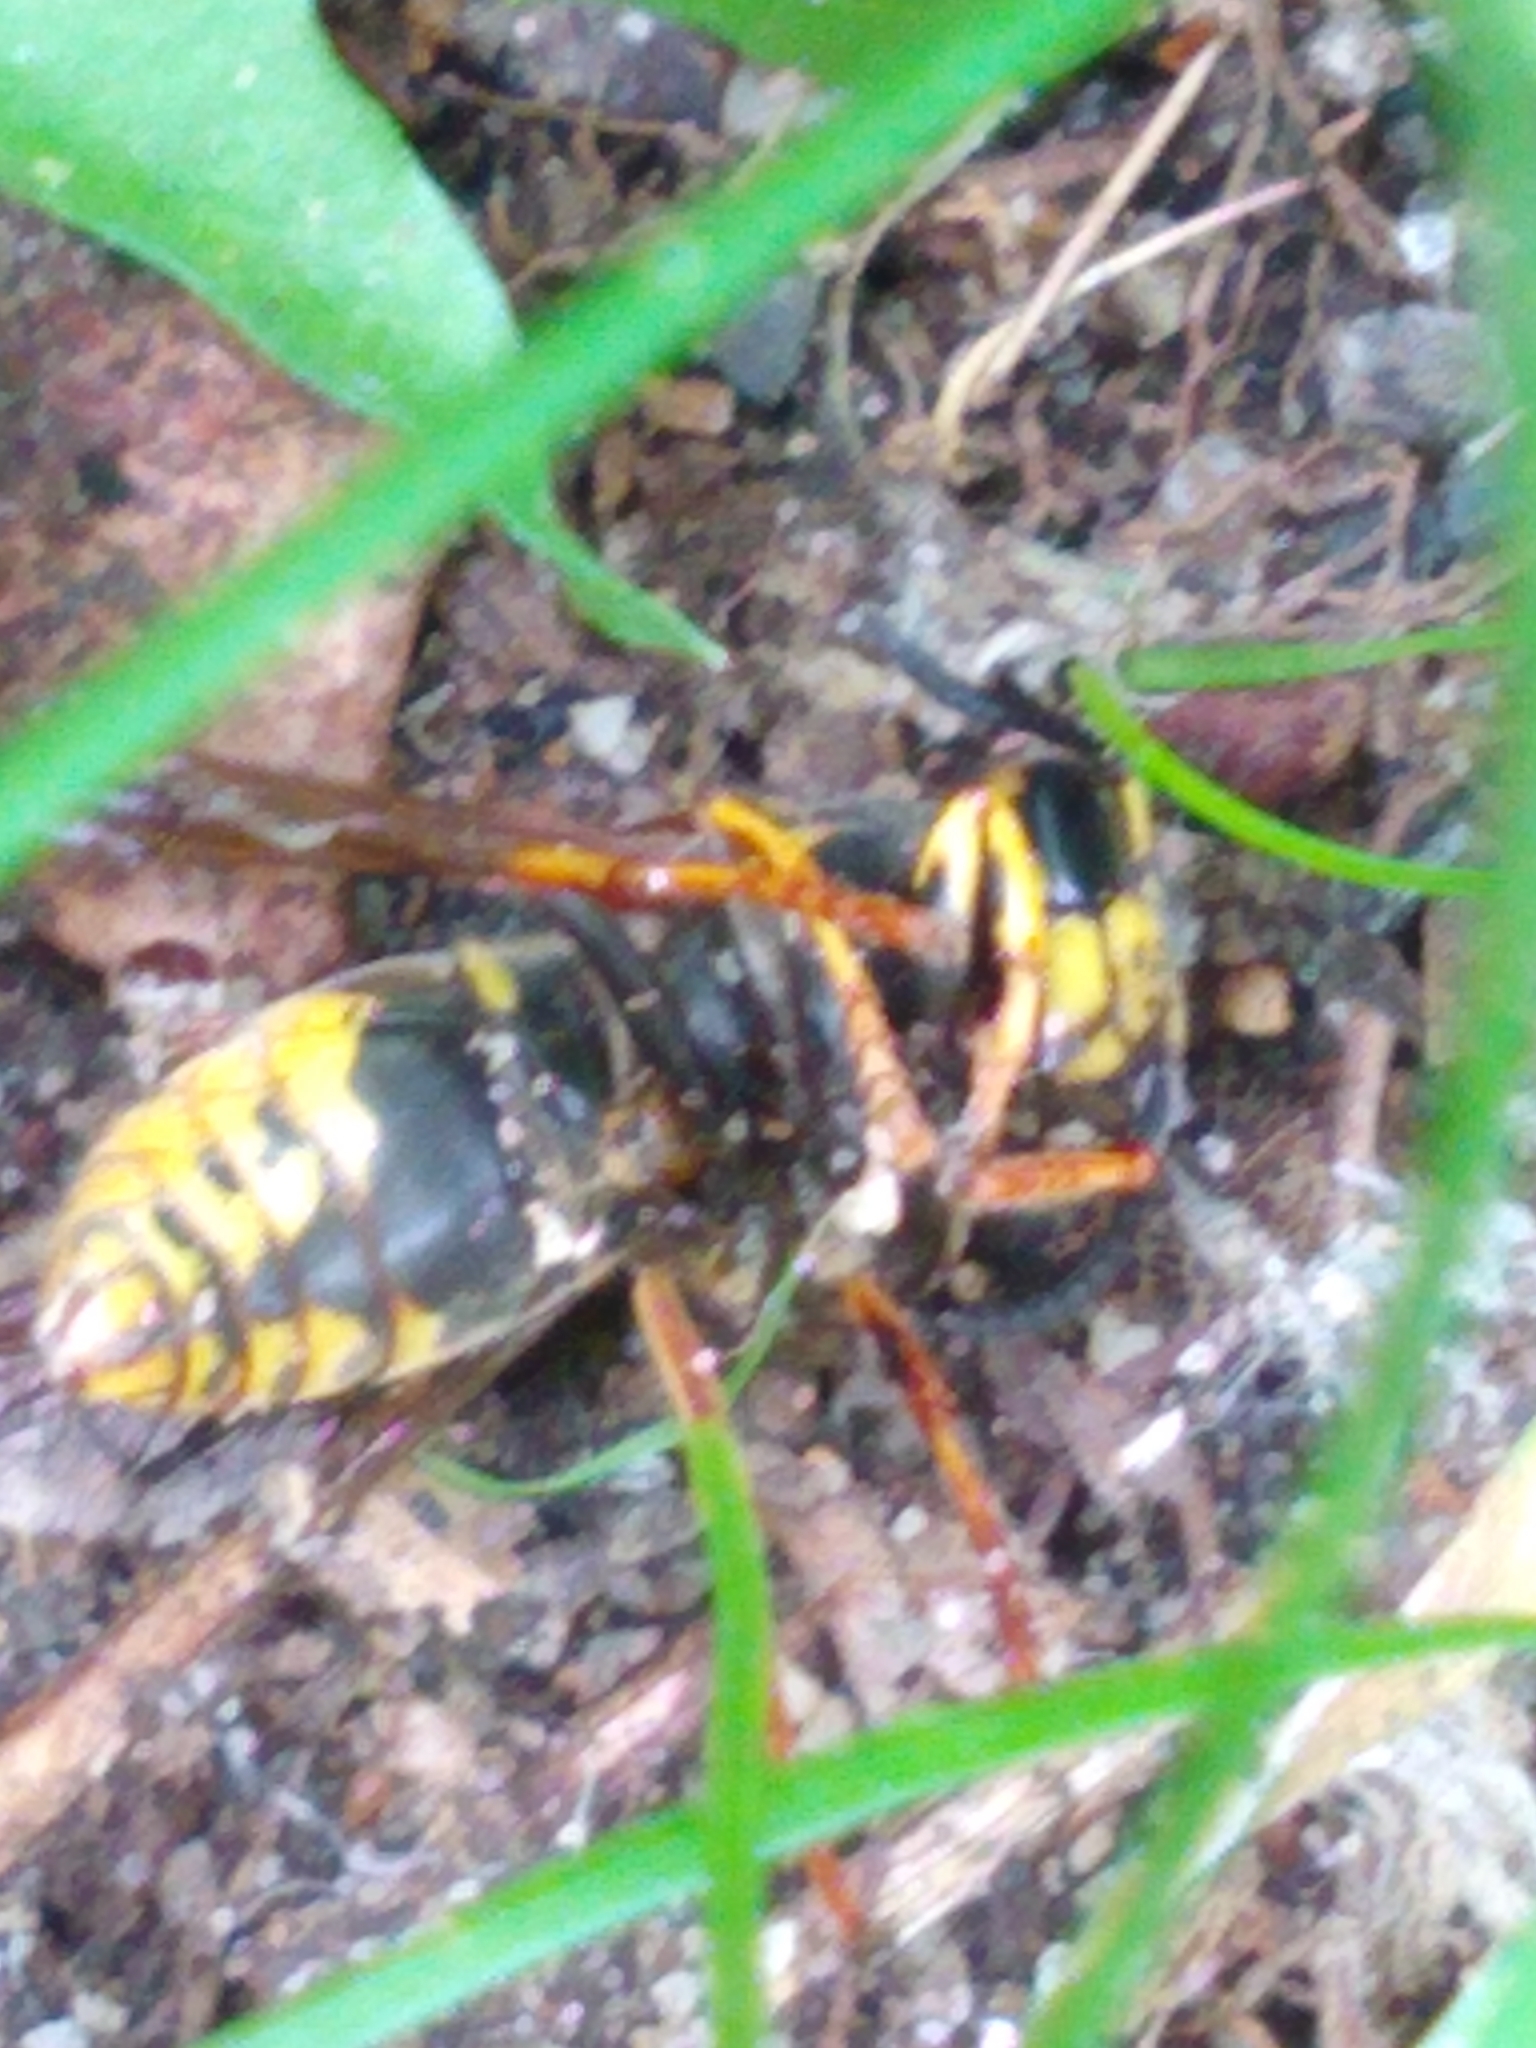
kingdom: Animalia
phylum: Arthropoda
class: Insecta
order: Hymenoptera
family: Vespidae
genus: Vespula
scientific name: Vespula vidua
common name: Widow yellowjacket
